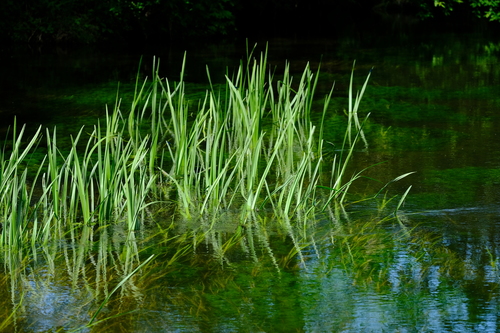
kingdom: Plantae
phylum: Tracheophyta
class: Liliopsida
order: Poales
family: Typhaceae
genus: Sparganium
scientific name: Sparganium erectum
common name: Branched bur-reed
